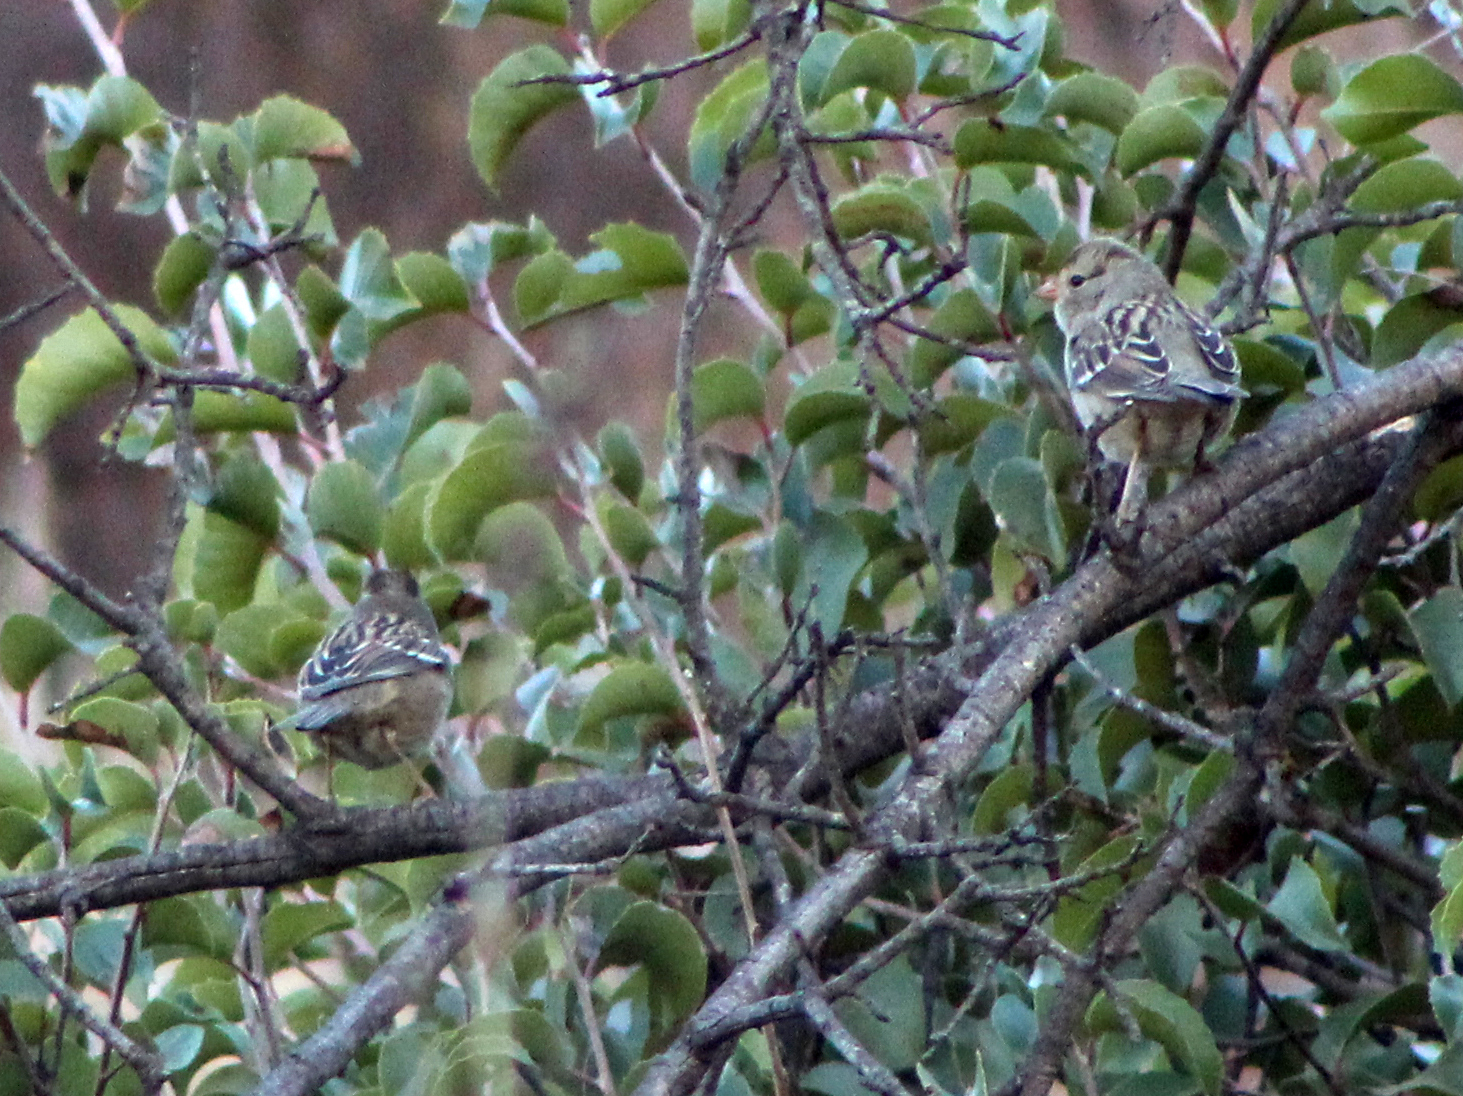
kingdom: Animalia
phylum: Chordata
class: Aves
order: Passeriformes
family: Passerellidae
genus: Zonotrichia
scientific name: Zonotrichia leucophrys
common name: White-crowned sparrow
